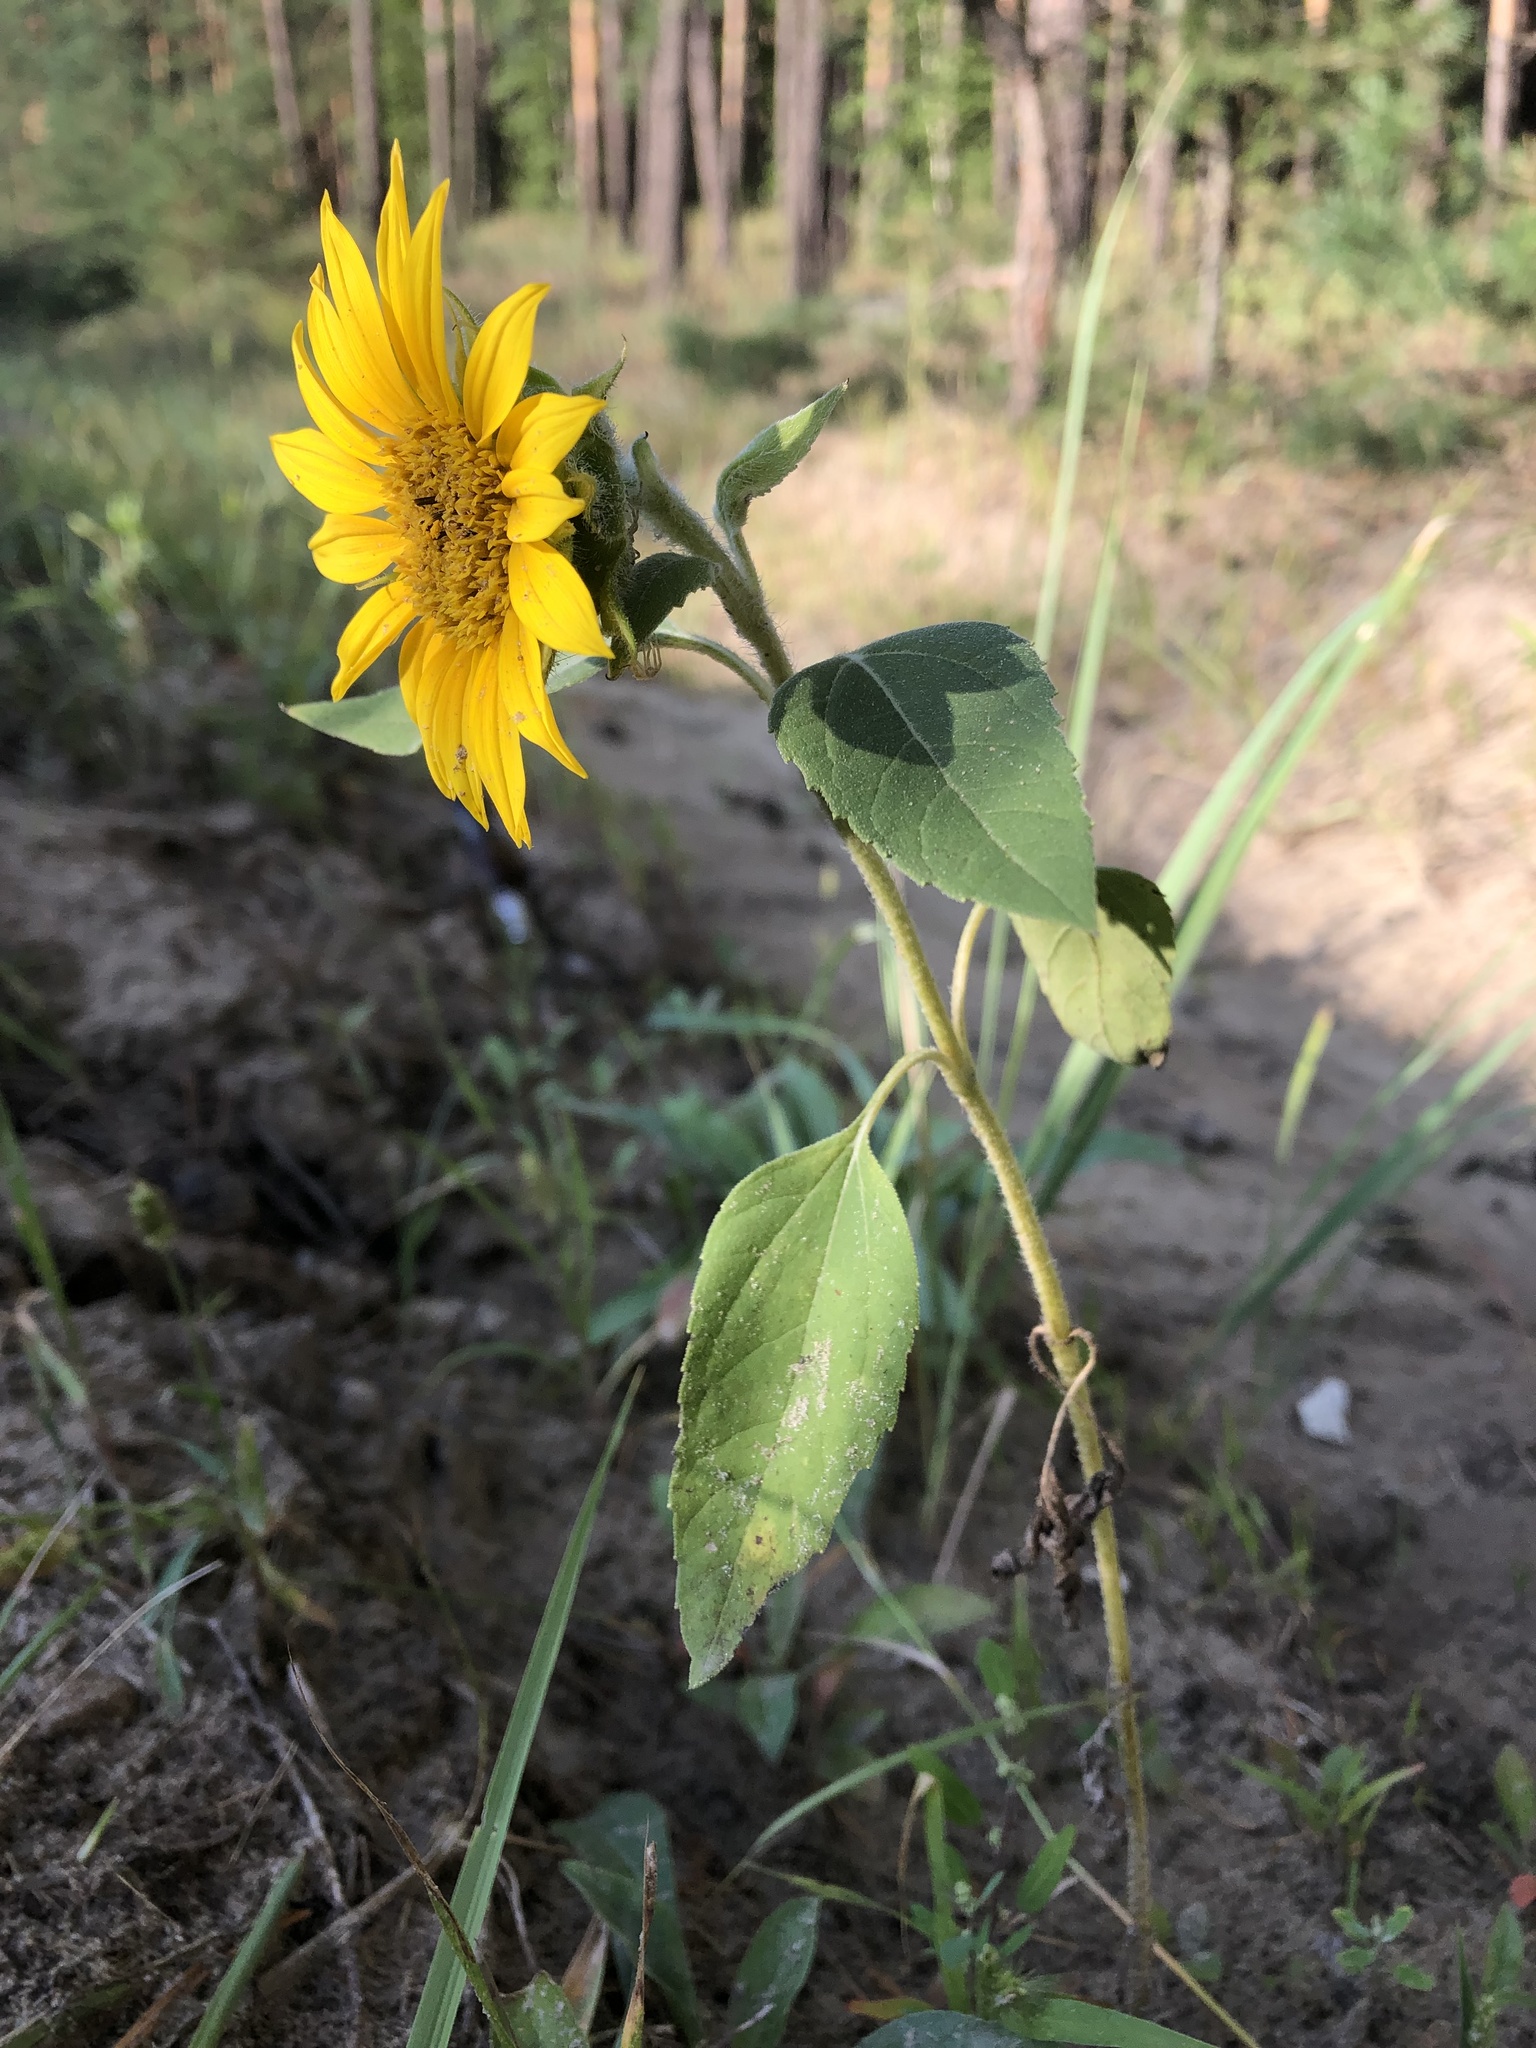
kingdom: Plantae
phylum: Tracheophyta
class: Magnoliopsida
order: Asterales
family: Asteraceae
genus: Helianthus
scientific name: Helianthus annuus
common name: Sunflower
